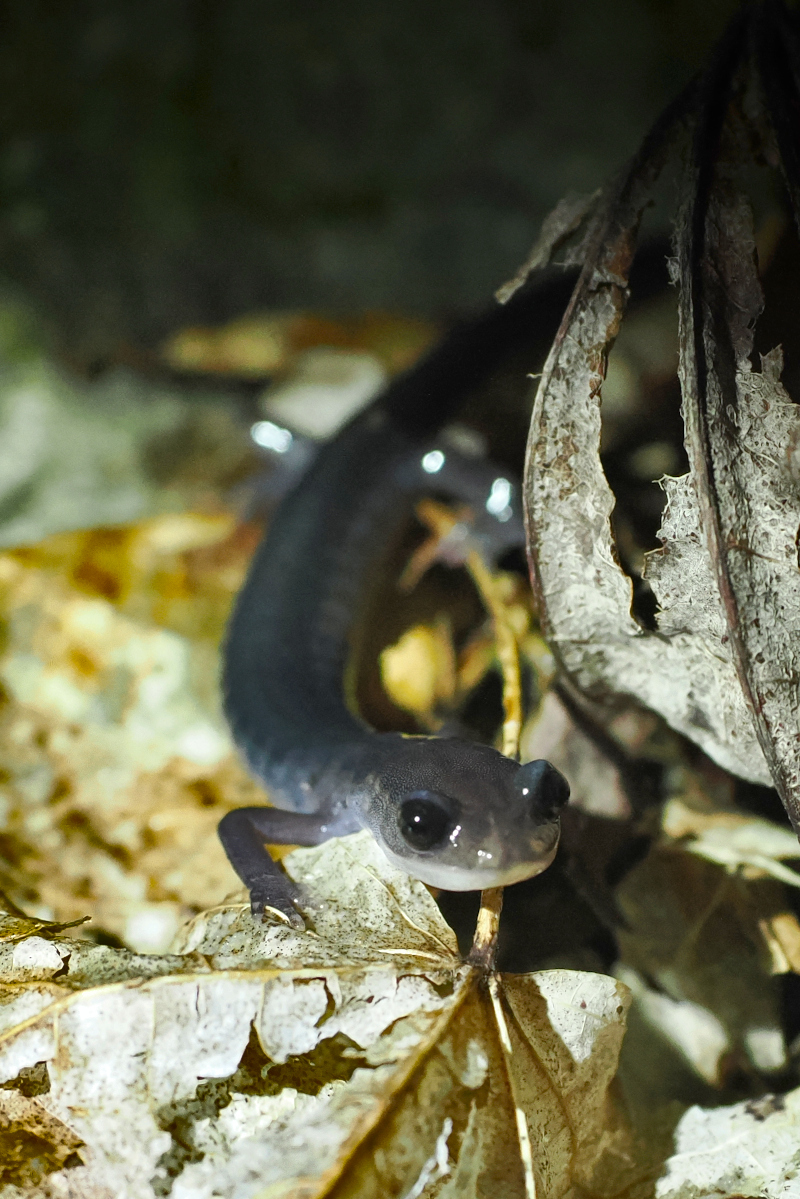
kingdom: Animalia
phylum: Chordata
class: Amphibia
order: Caudata
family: Plethodontidae
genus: Plethodon
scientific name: Plethodon montanus
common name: Northern gray-cheeked salamander
